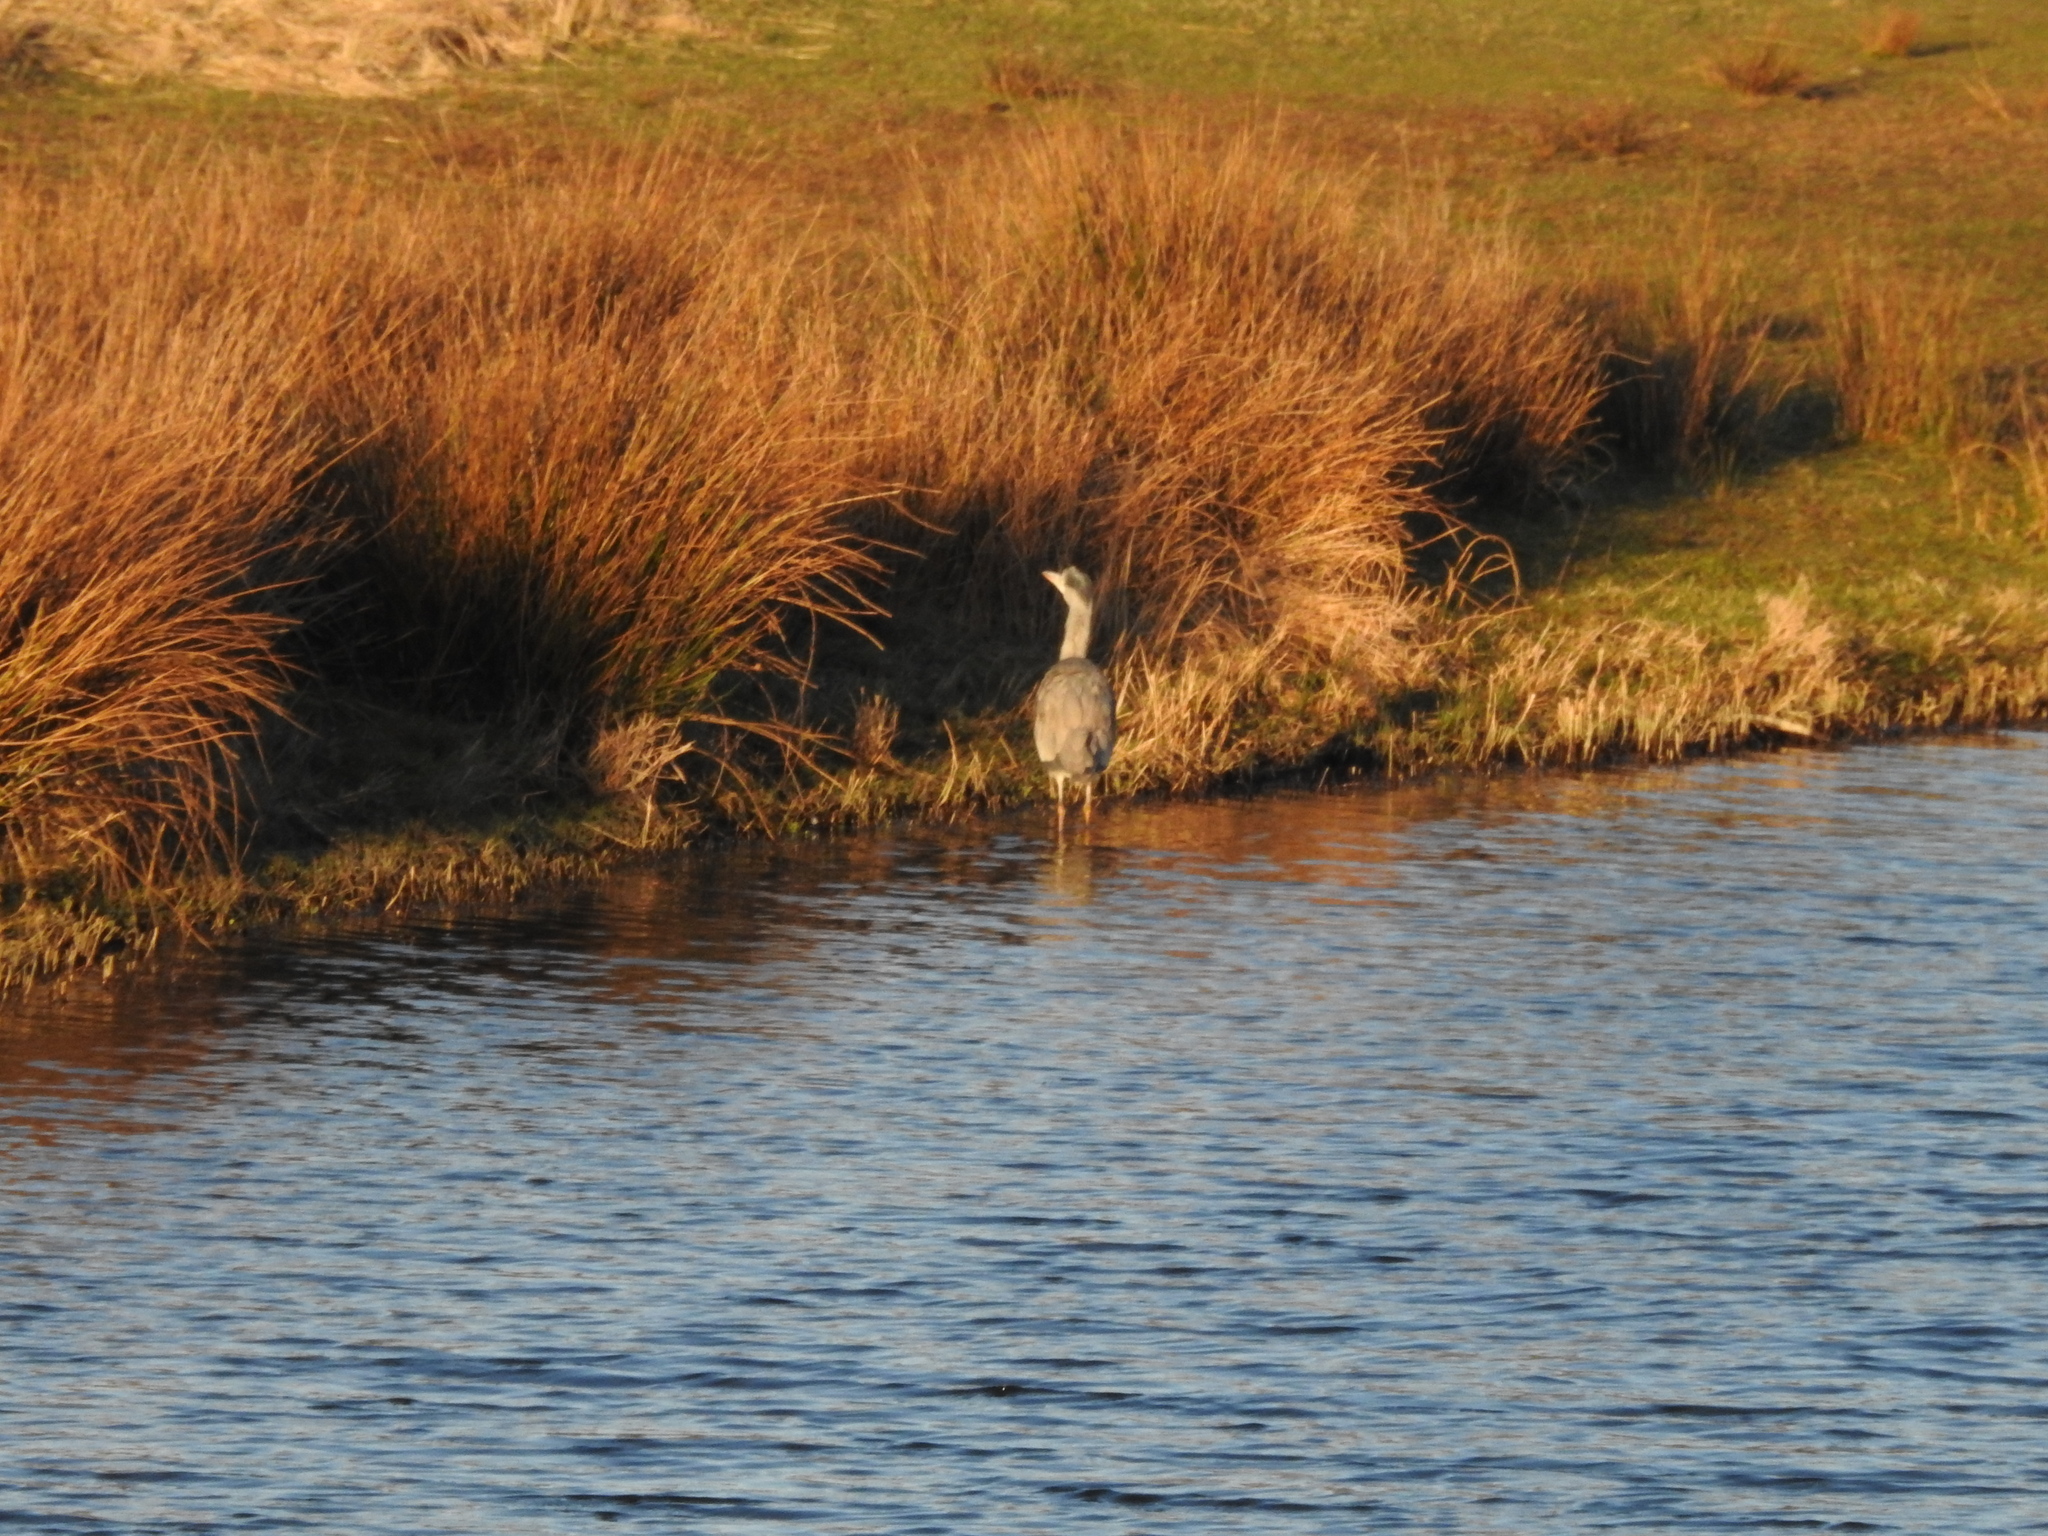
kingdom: Animalia
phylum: Chordata
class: Aves
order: Pelecaniformes
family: Ardeidae
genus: Ardea
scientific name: Ardea cinerea
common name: Grey heron
